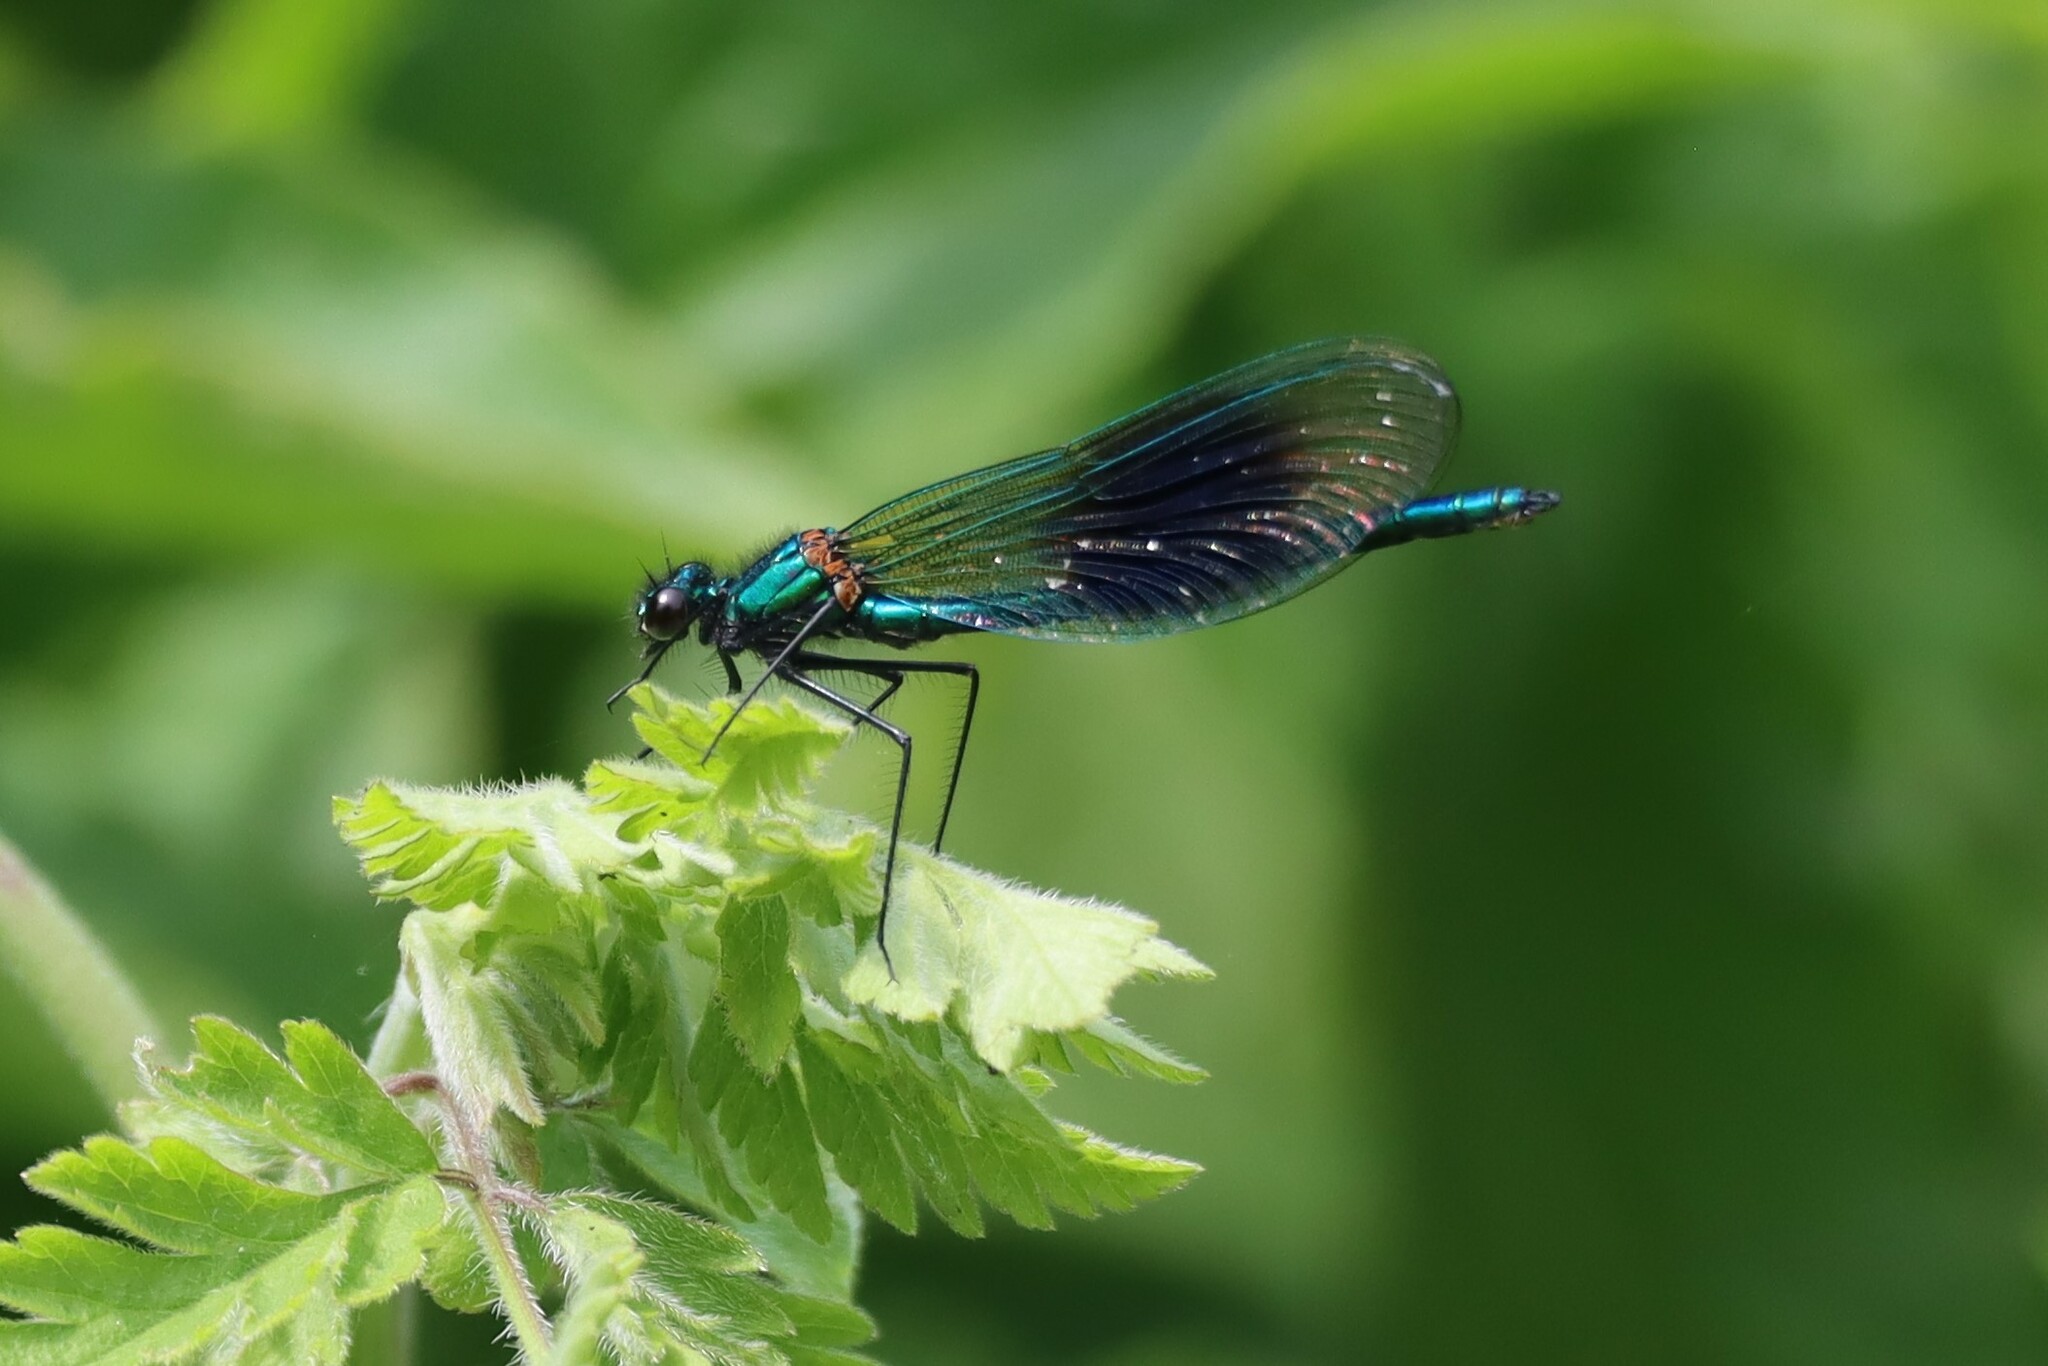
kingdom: Animalia
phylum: Arthropoda
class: Insecta
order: Odonata
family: Calopterygidae
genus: Calopteryx
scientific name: Calopteryx splendens
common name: Banded demoiselle
